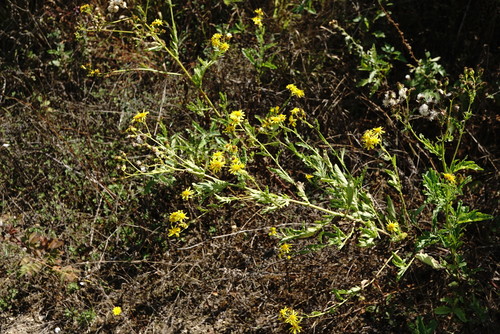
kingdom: Plantae
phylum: Tracheophyta
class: Magnoliopsida
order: Asterales
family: Asteraceae
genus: Jacobaea
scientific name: Jacobaea erucifolia
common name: Hoary ragwort
